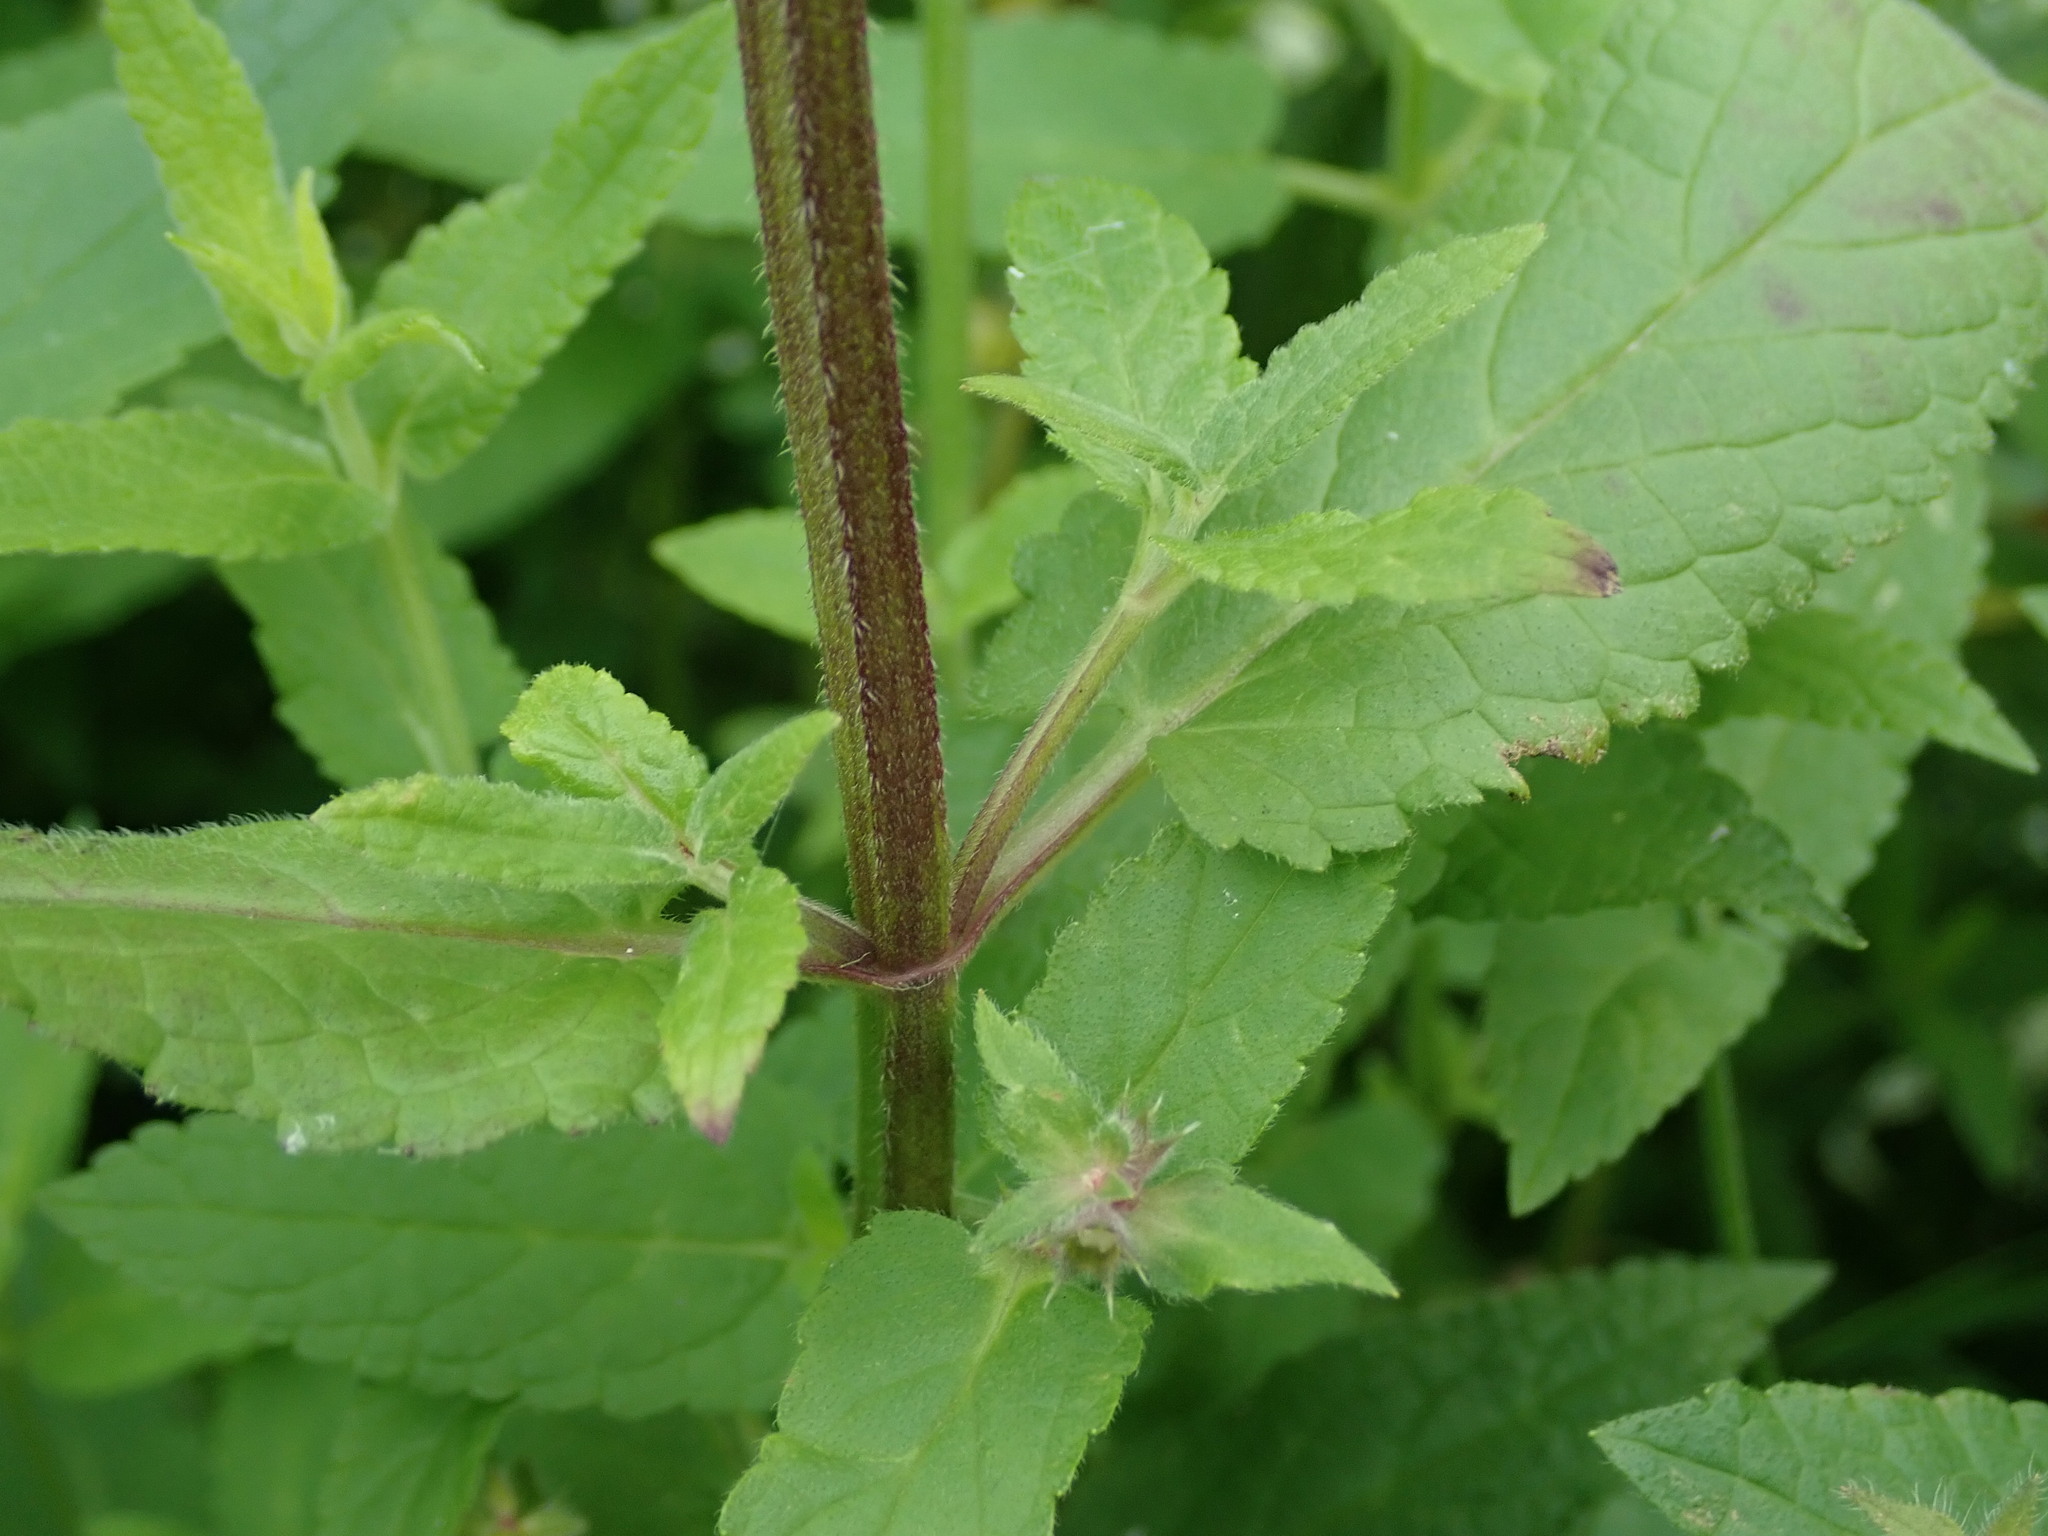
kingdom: Plantae
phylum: Tracheophyta
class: Magnoliopsida
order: Lamiales
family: Lamiaceae
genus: Stachys
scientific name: Stachys ambigua
